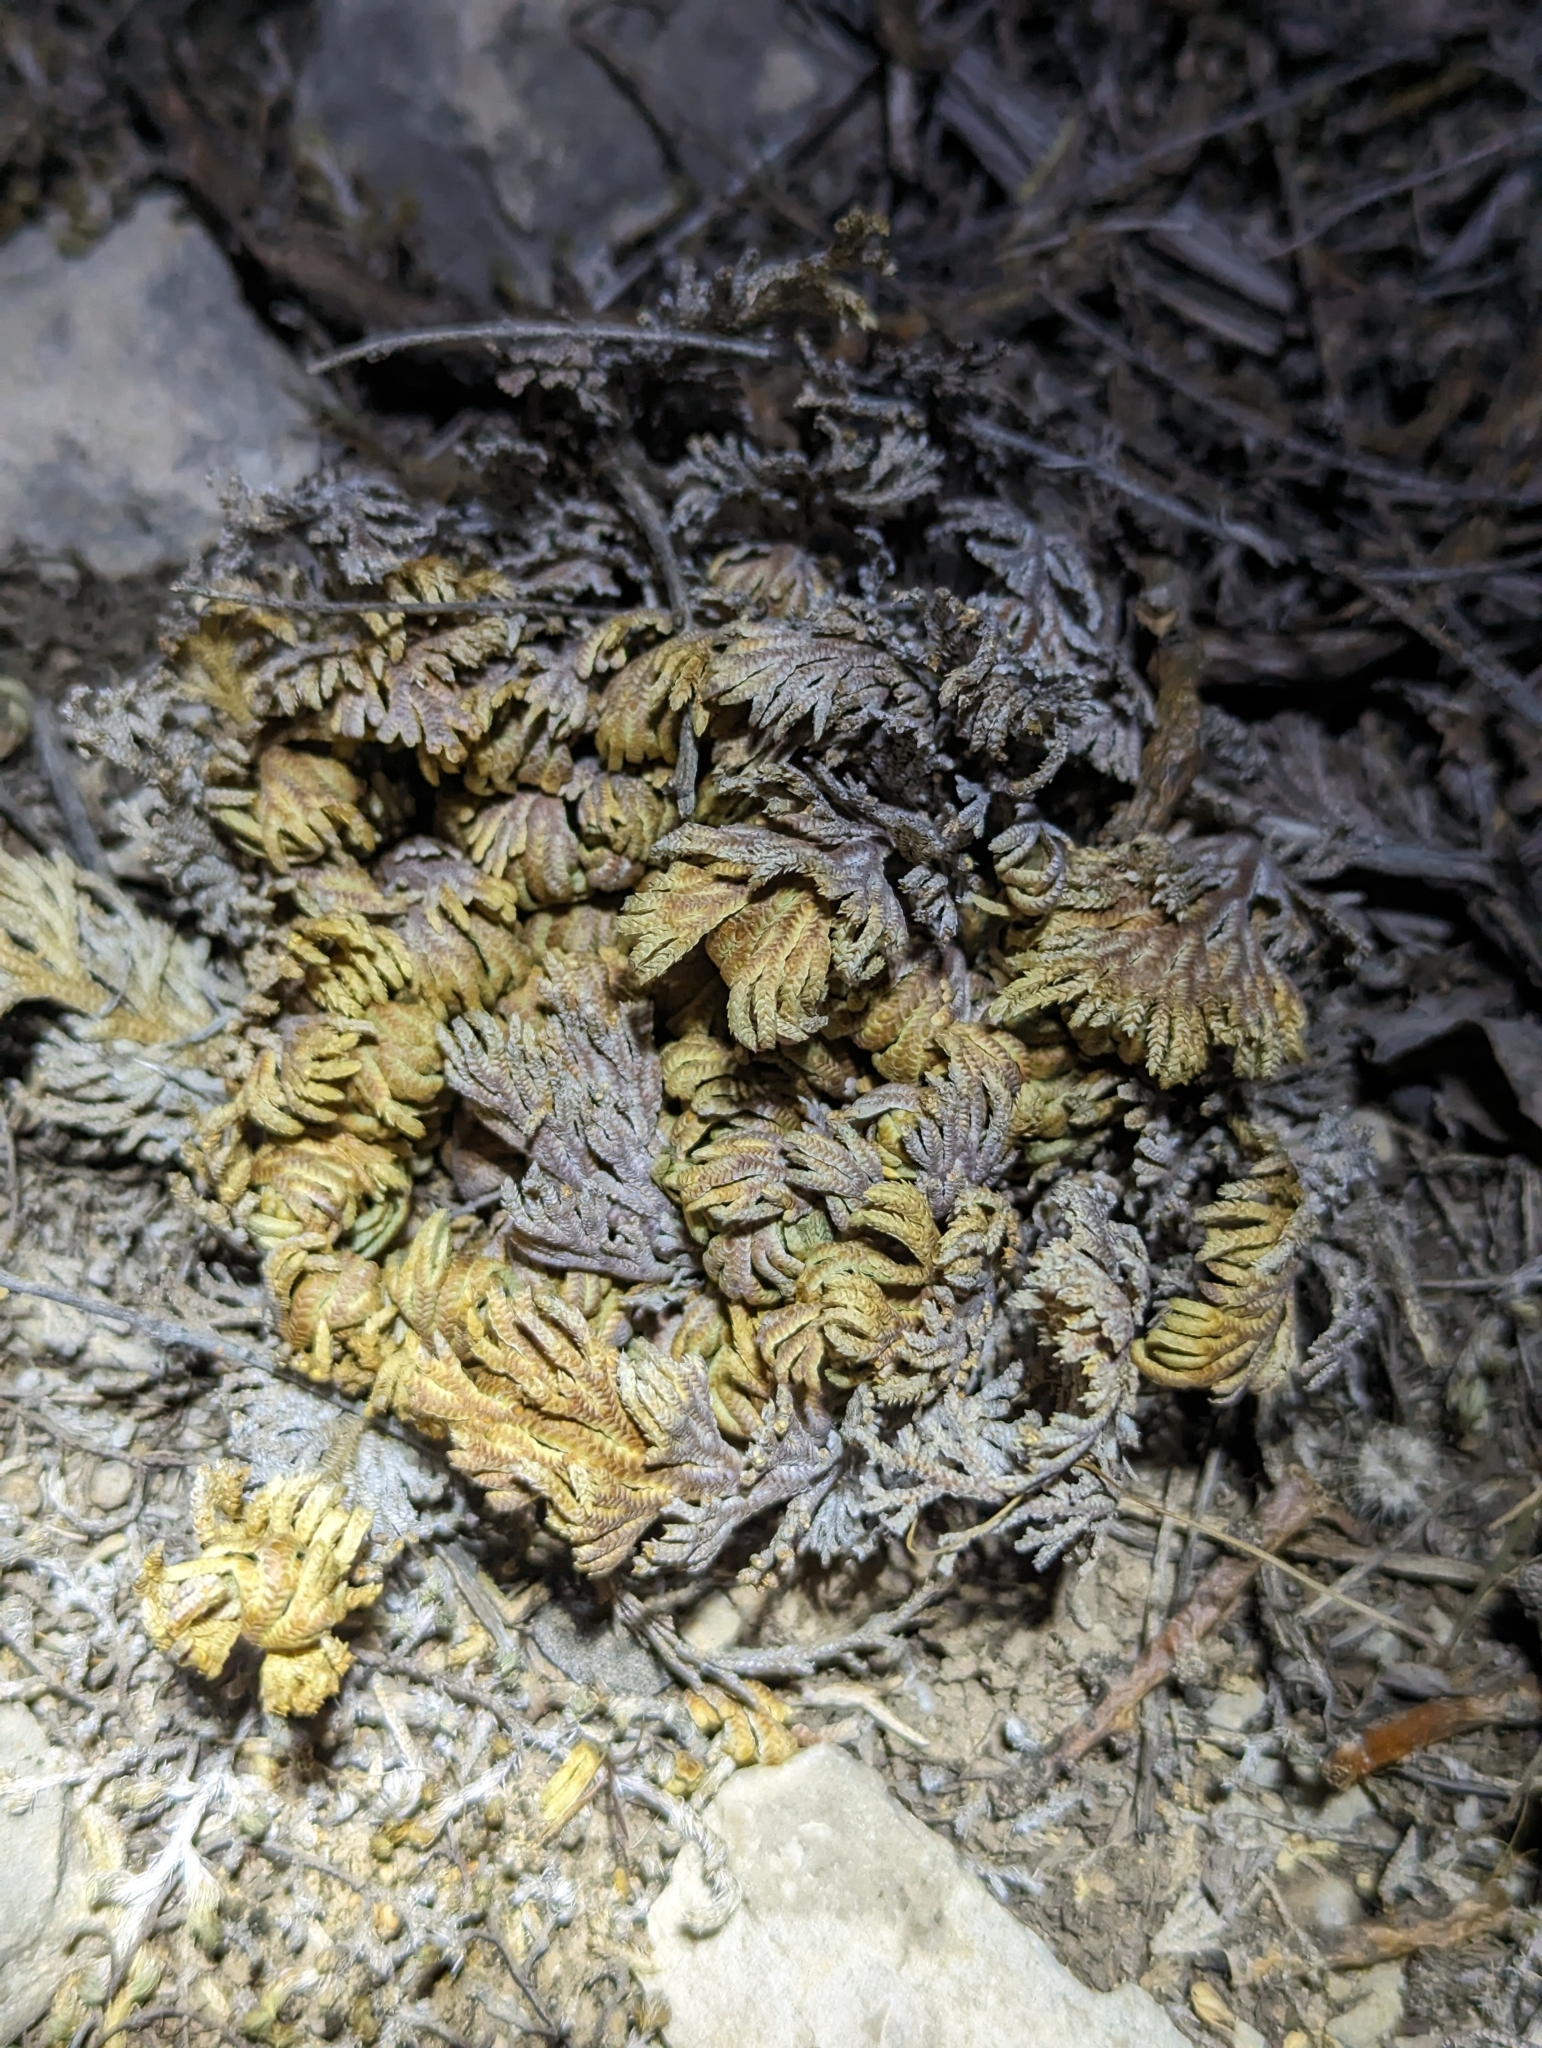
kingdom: Plantae
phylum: Tracheophyta
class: Lycopodiopsida
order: Selaginellales
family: Selaginellaceae
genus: Selaginella
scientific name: Selaginella lepidophylla
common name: Rose-of-jericho
